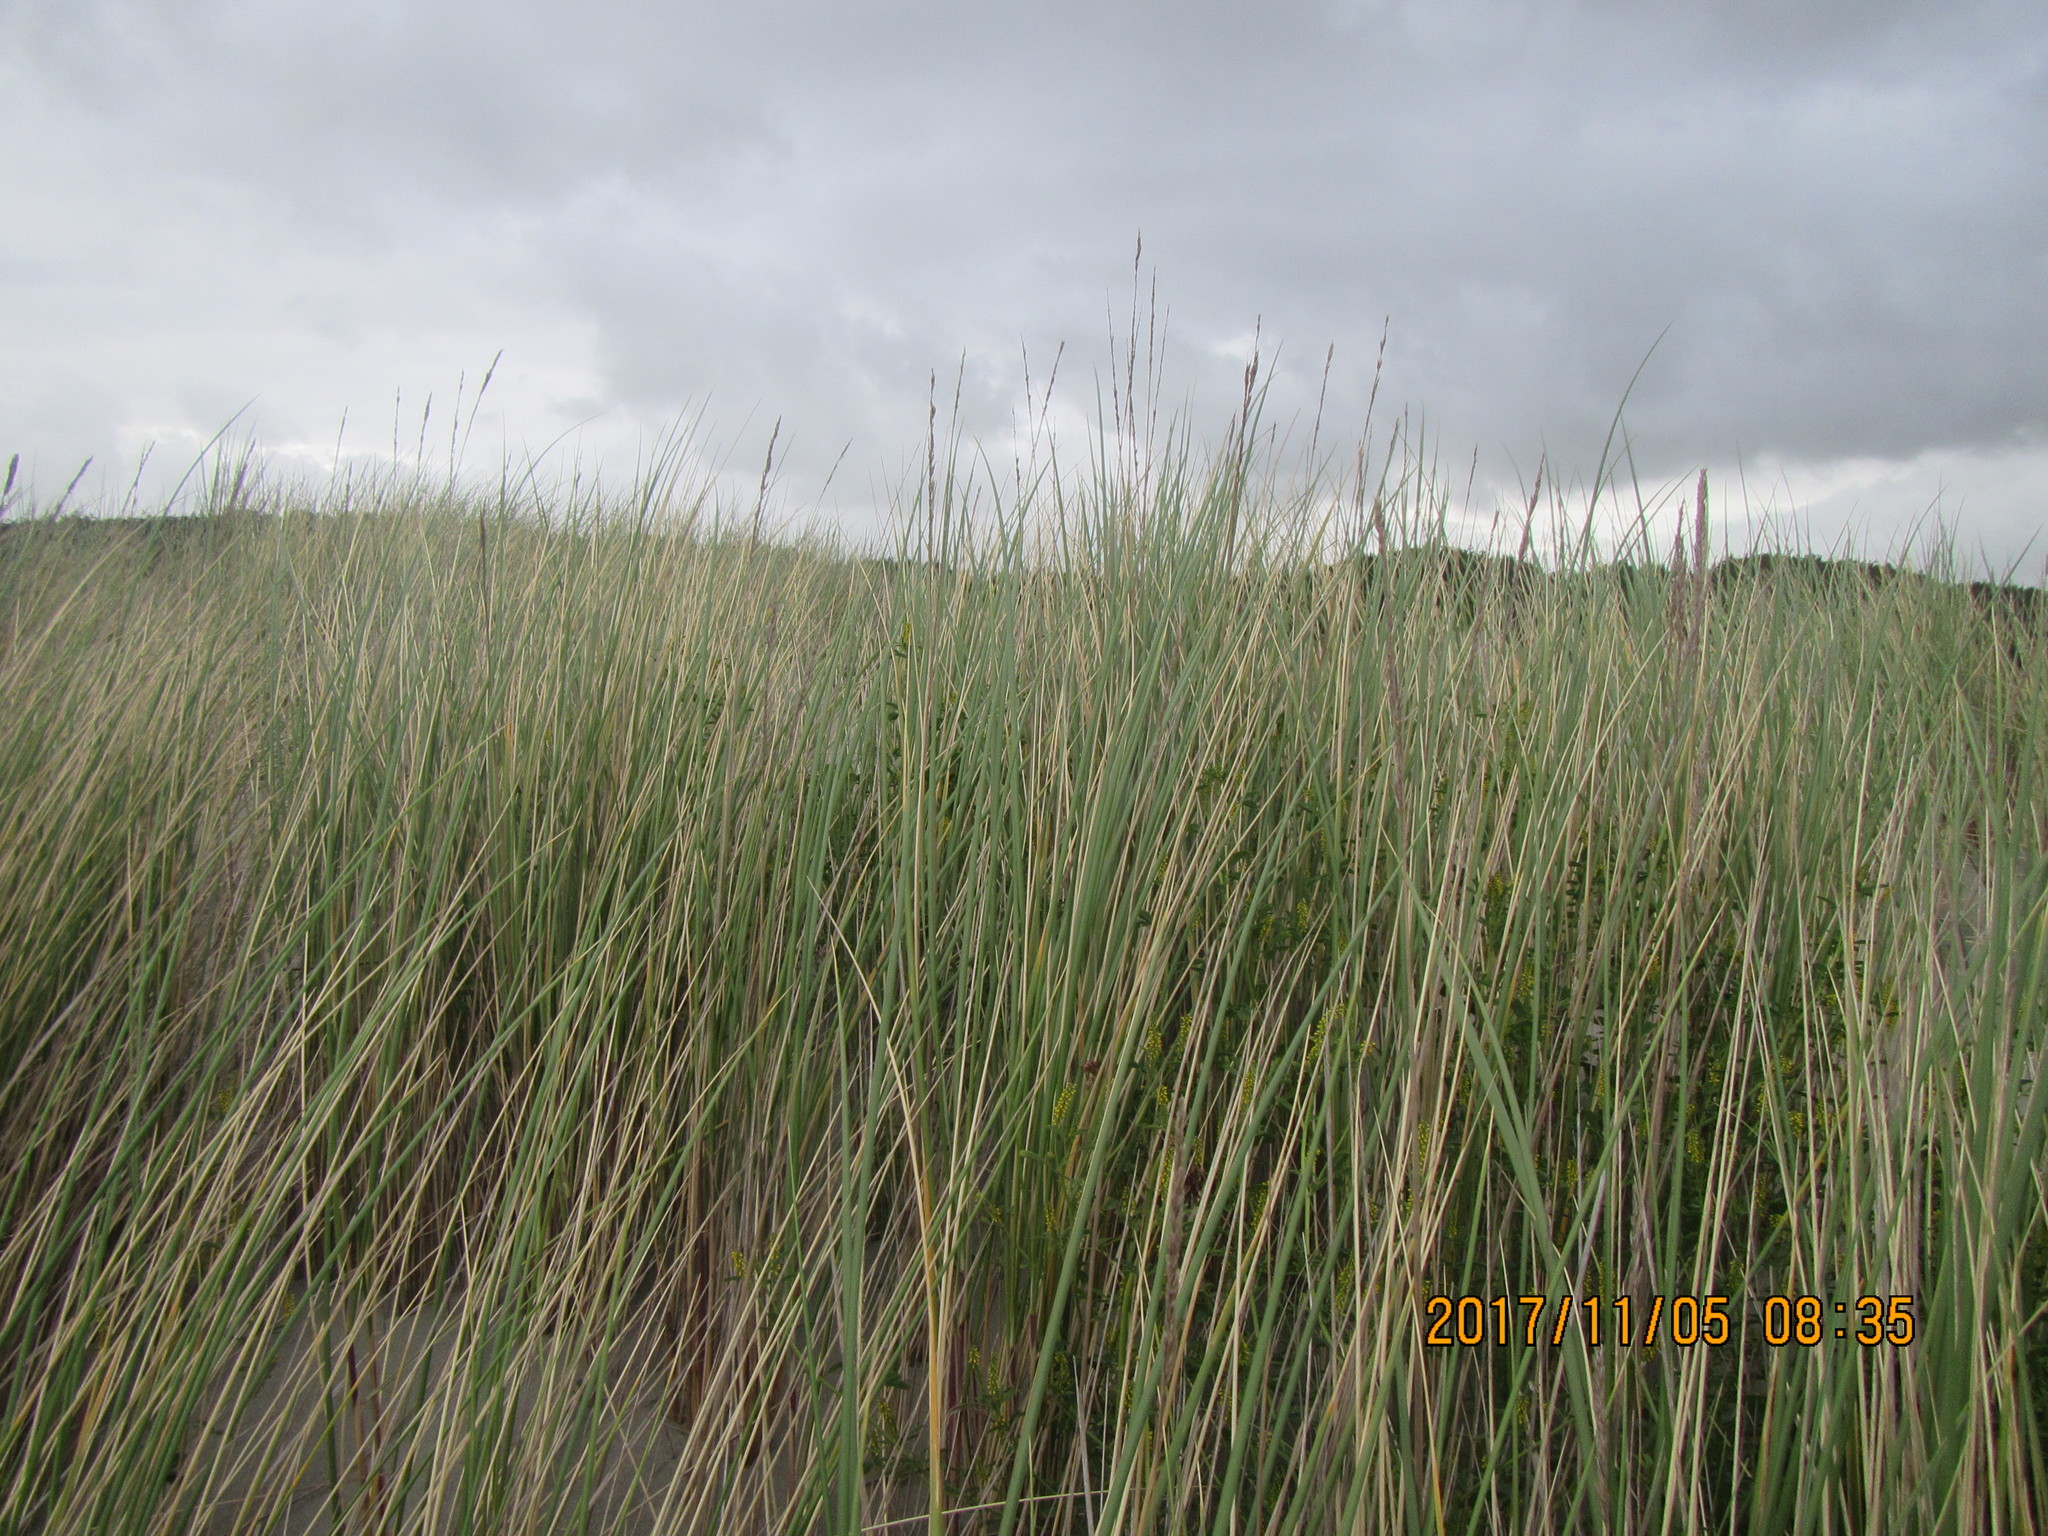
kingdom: Plantae
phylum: Tracheophyta
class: Liliopsida
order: Poales
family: Poaceae
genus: Calamagrostis
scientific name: Calamagrostis arenaria
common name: European beachgrass
